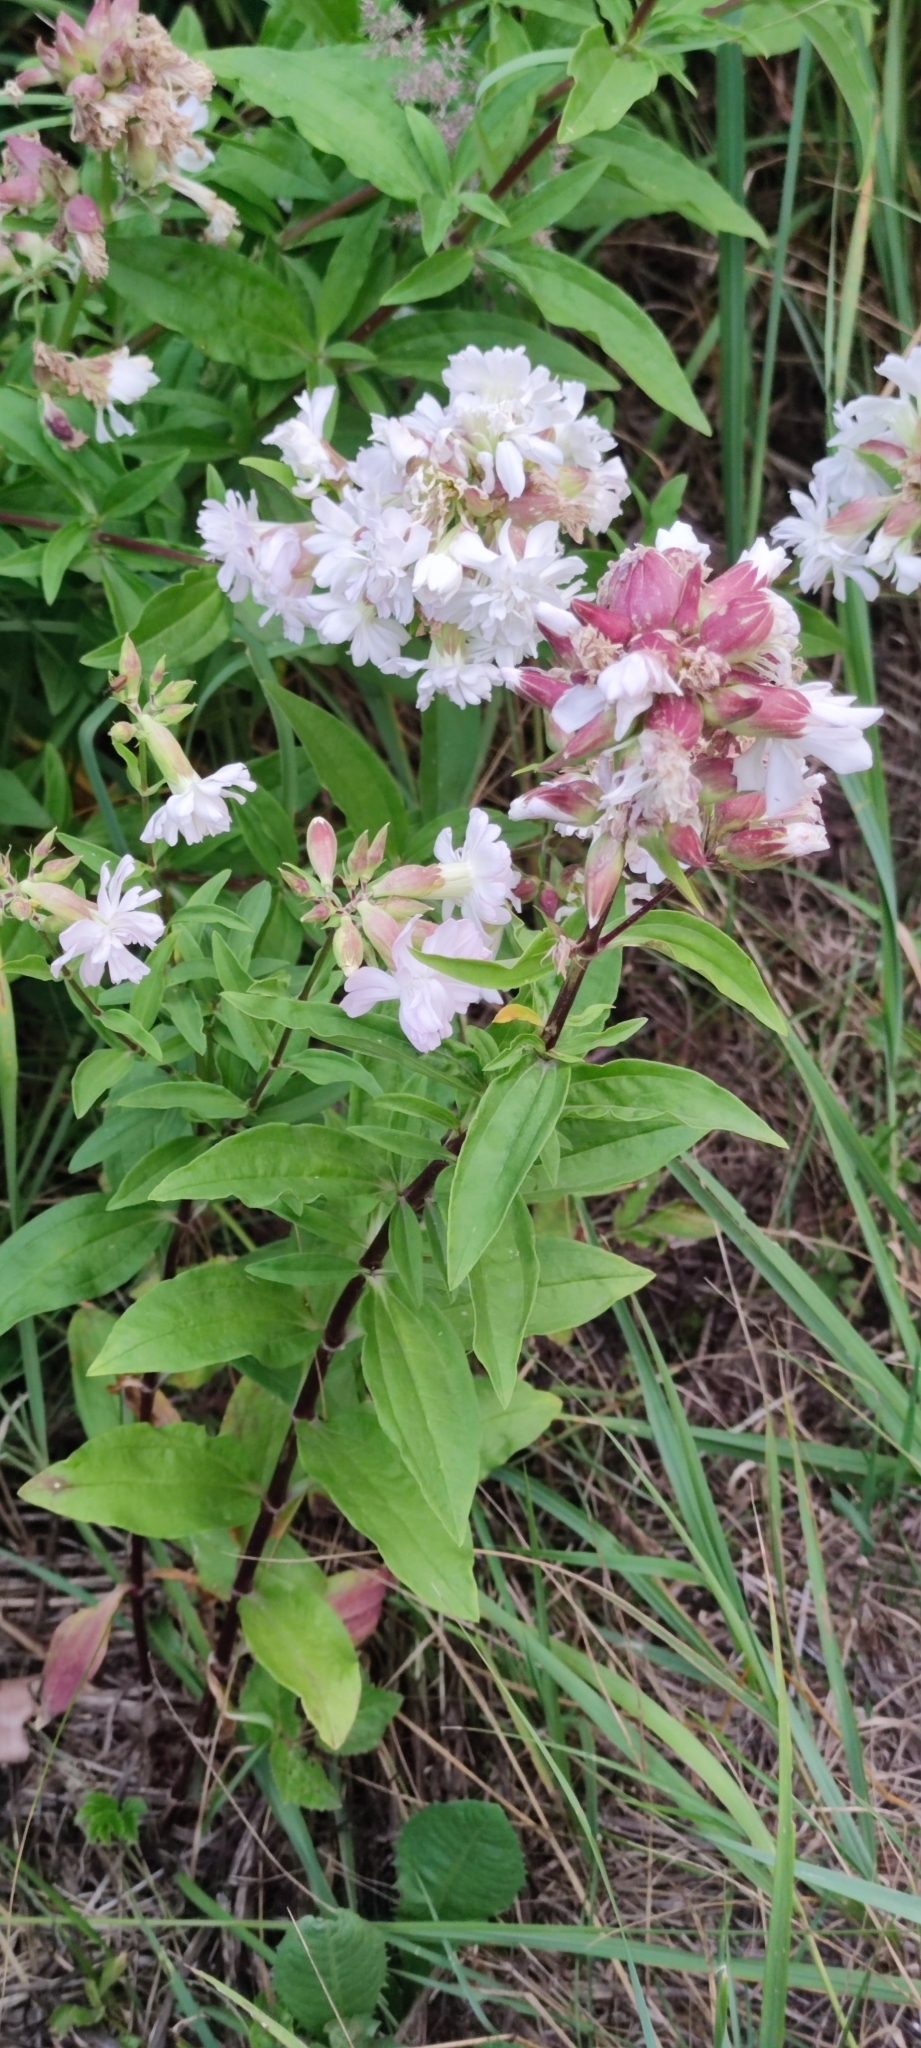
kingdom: Plantae
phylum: Tracheophyta
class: Magnoliopsida
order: Caryophyllales
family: Caryophyllaceae
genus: Saponaria
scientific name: Saponaria officinalis
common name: Soapwort
